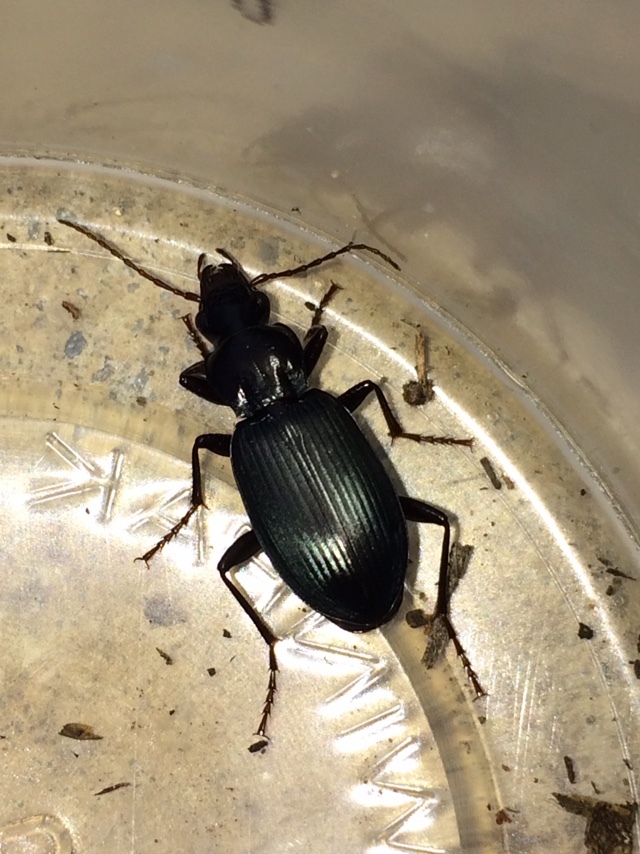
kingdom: Animalia
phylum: Arthropoda
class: Insecta
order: Coleoptera
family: Carabidae
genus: Laemostenus
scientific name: Laemostenus complanatus
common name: Cosmopolitan ground beetle
